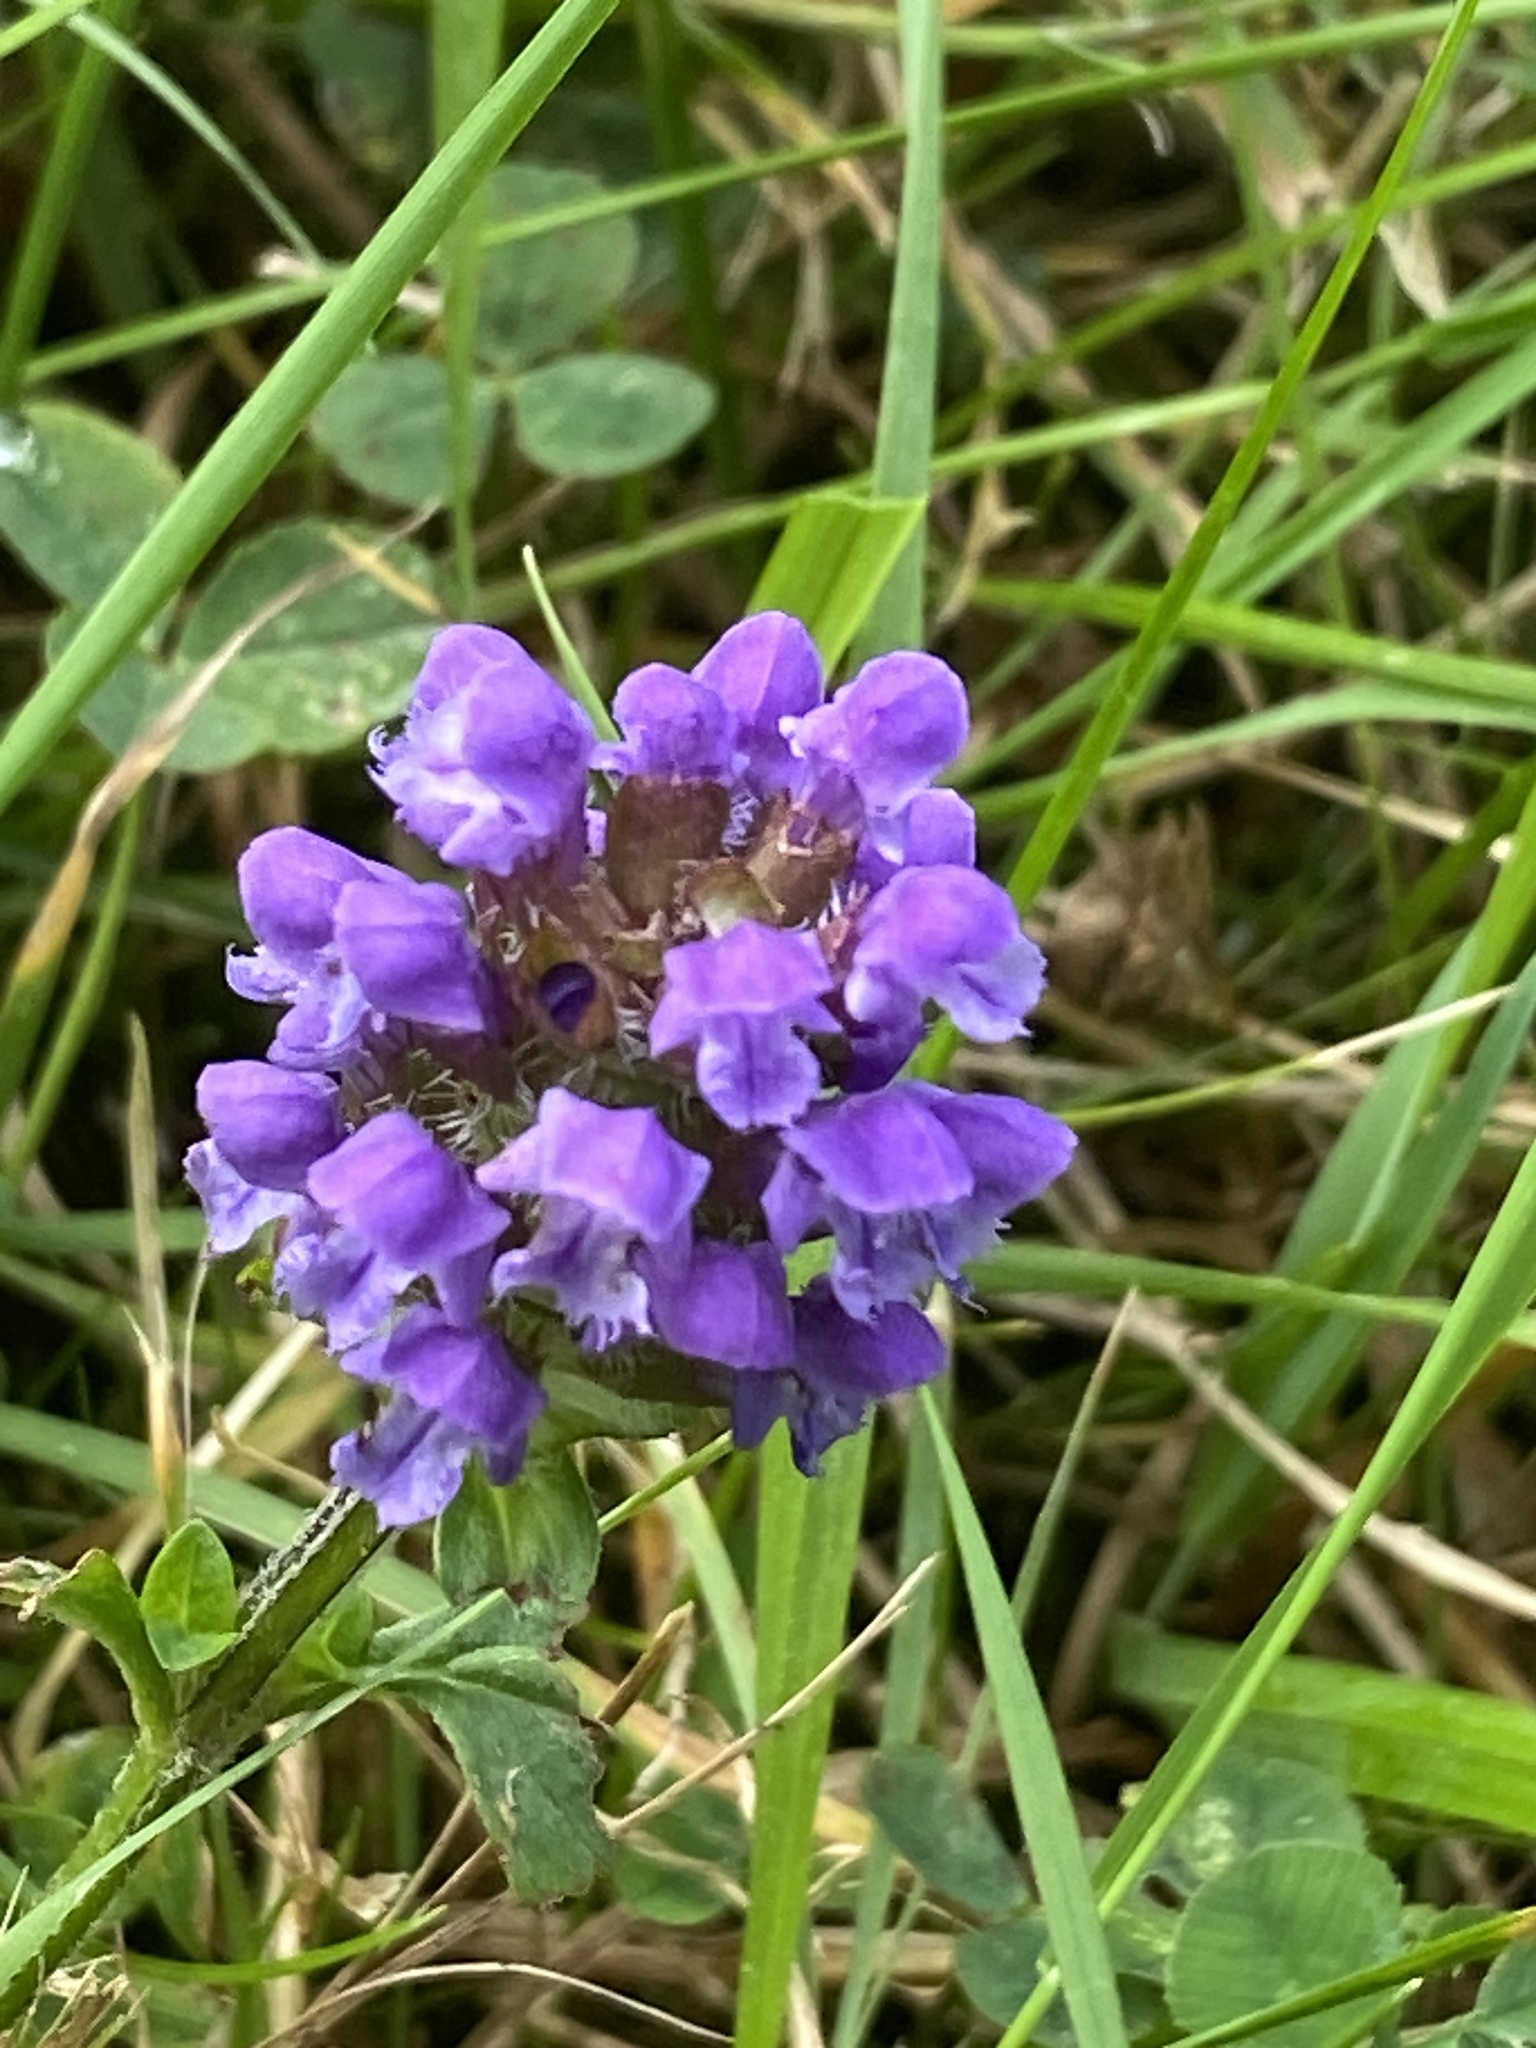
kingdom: Plantae
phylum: Tracheophyta
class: Magnoliopsida
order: Lamiales
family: Lamiaceae
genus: Prunella
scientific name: Prunella vulgaris
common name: Heal-all
